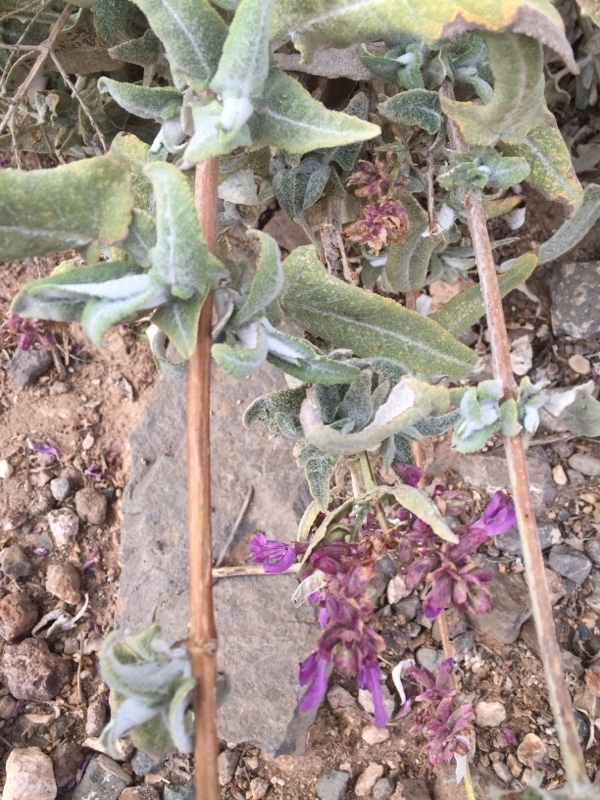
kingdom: Plantae
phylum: Tracheophyta
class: Magnoliopsida
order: Lamiales
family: Lamiaceae
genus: Salvia
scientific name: Salvia canariensis
